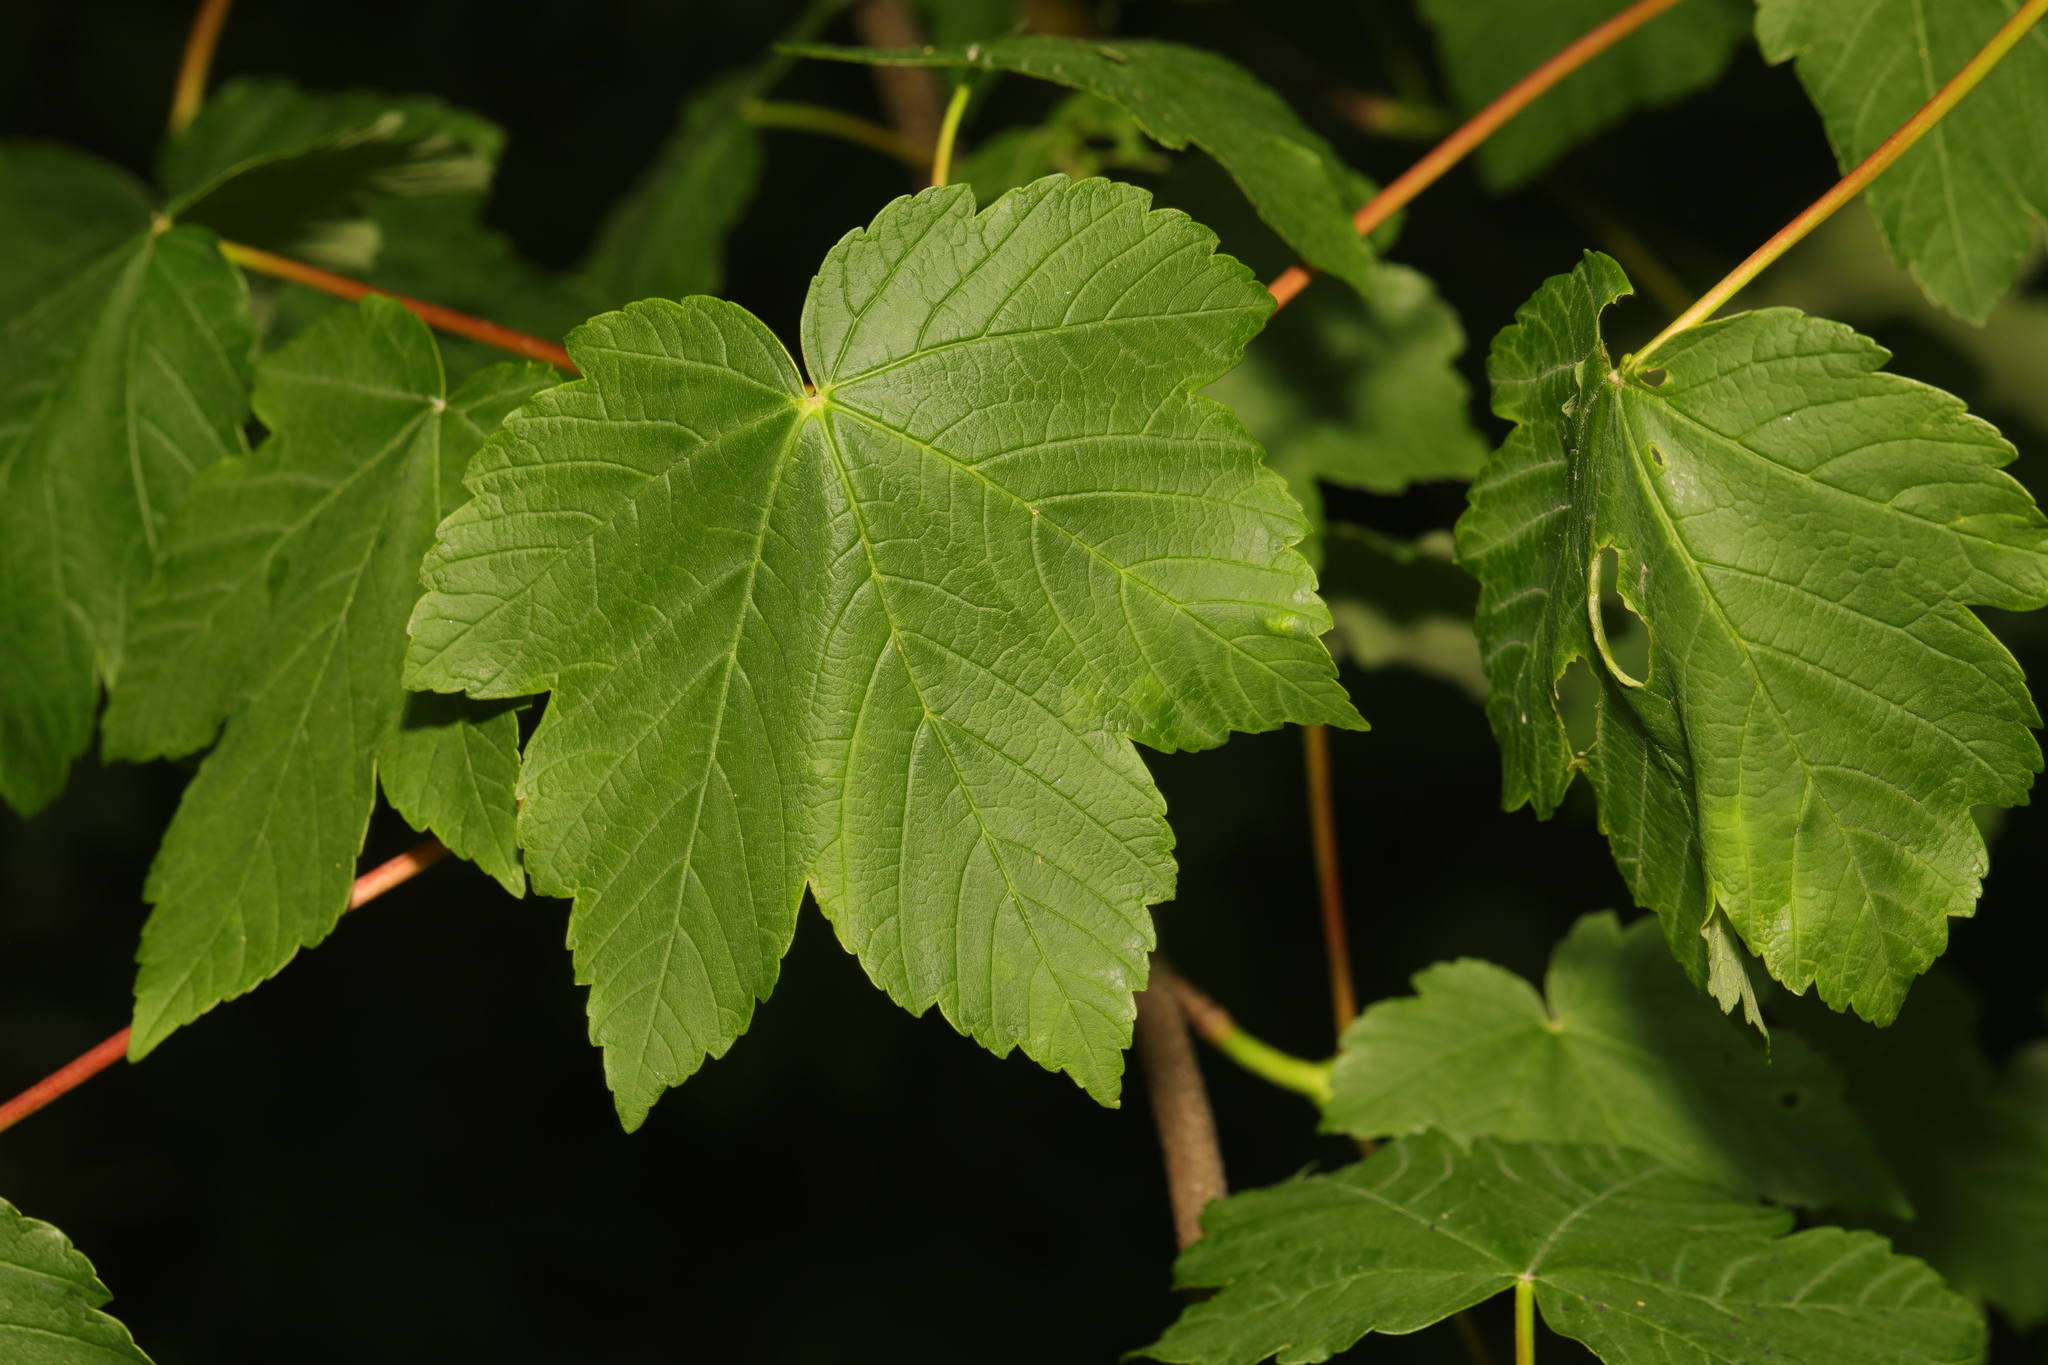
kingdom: Plantae
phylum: Tracheophyta
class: Magnoliopsida
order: Sapindales
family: Sapindaceae
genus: Acer
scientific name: Acer pseudoplatanus
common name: Sycamore
